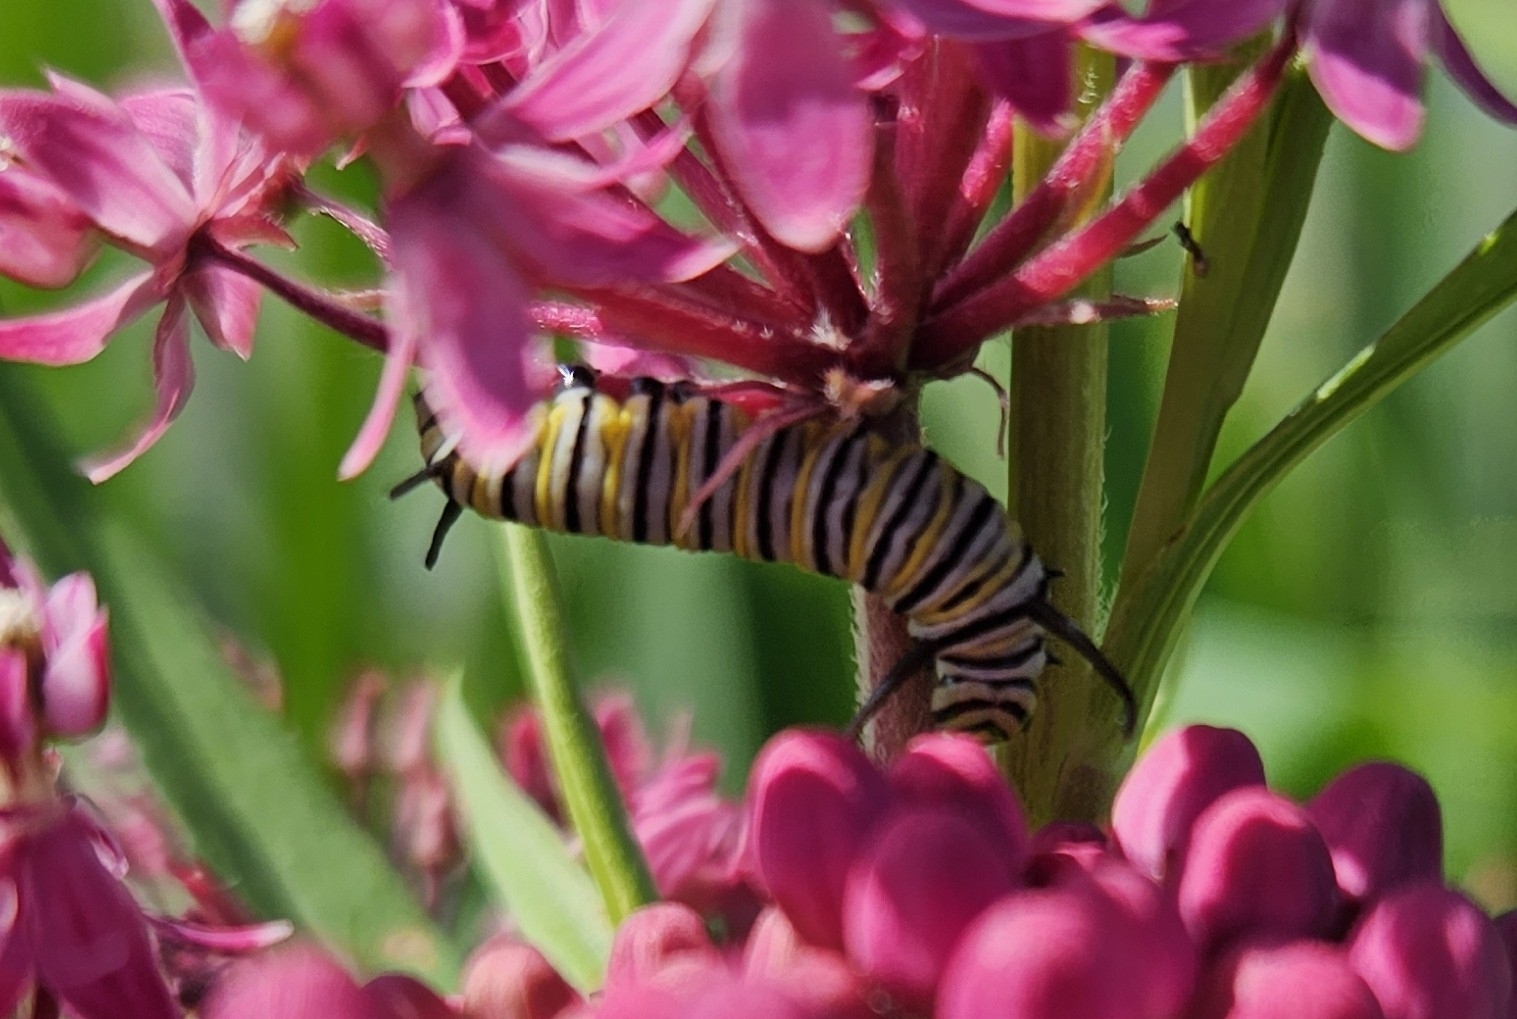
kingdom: Animalia
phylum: Arthropoda
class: Insecta
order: Lepidoptera
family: Nymphalidae
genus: Danaus
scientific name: Danaus plexippus
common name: Monarch
